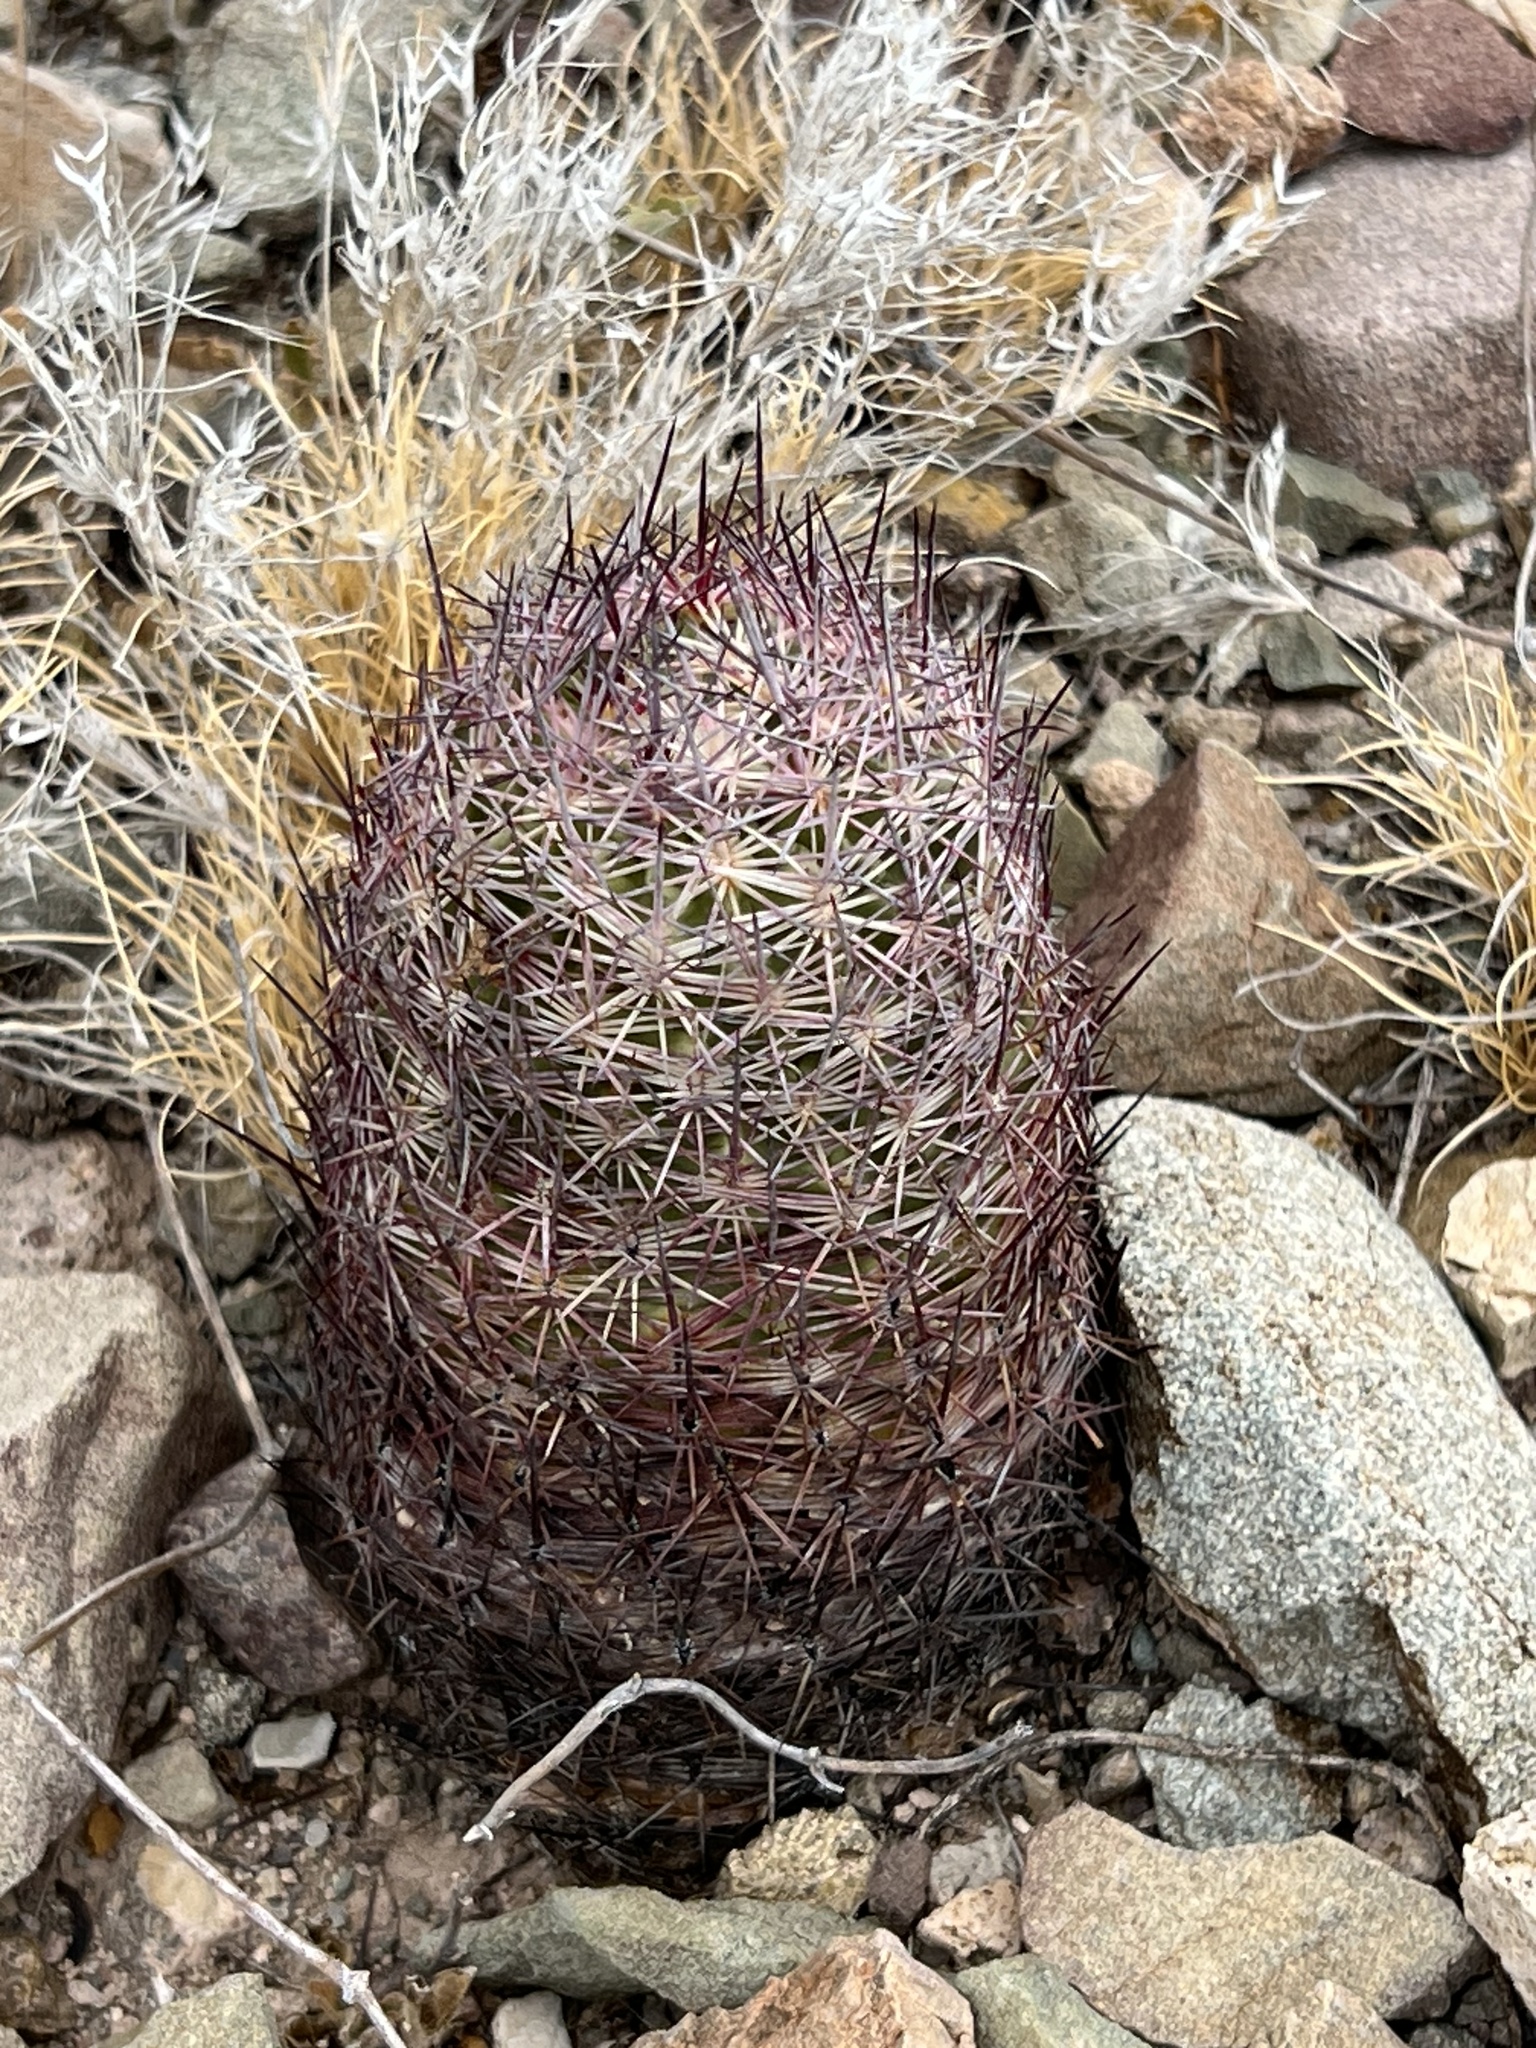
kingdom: Plantae
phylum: Tracheophyta
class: Magnoliopsida
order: Caryophyllales
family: Cactaceae
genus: Sclerocactus
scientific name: Sclerocactus johnsonii
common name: Eight-spine fishhook cactus
